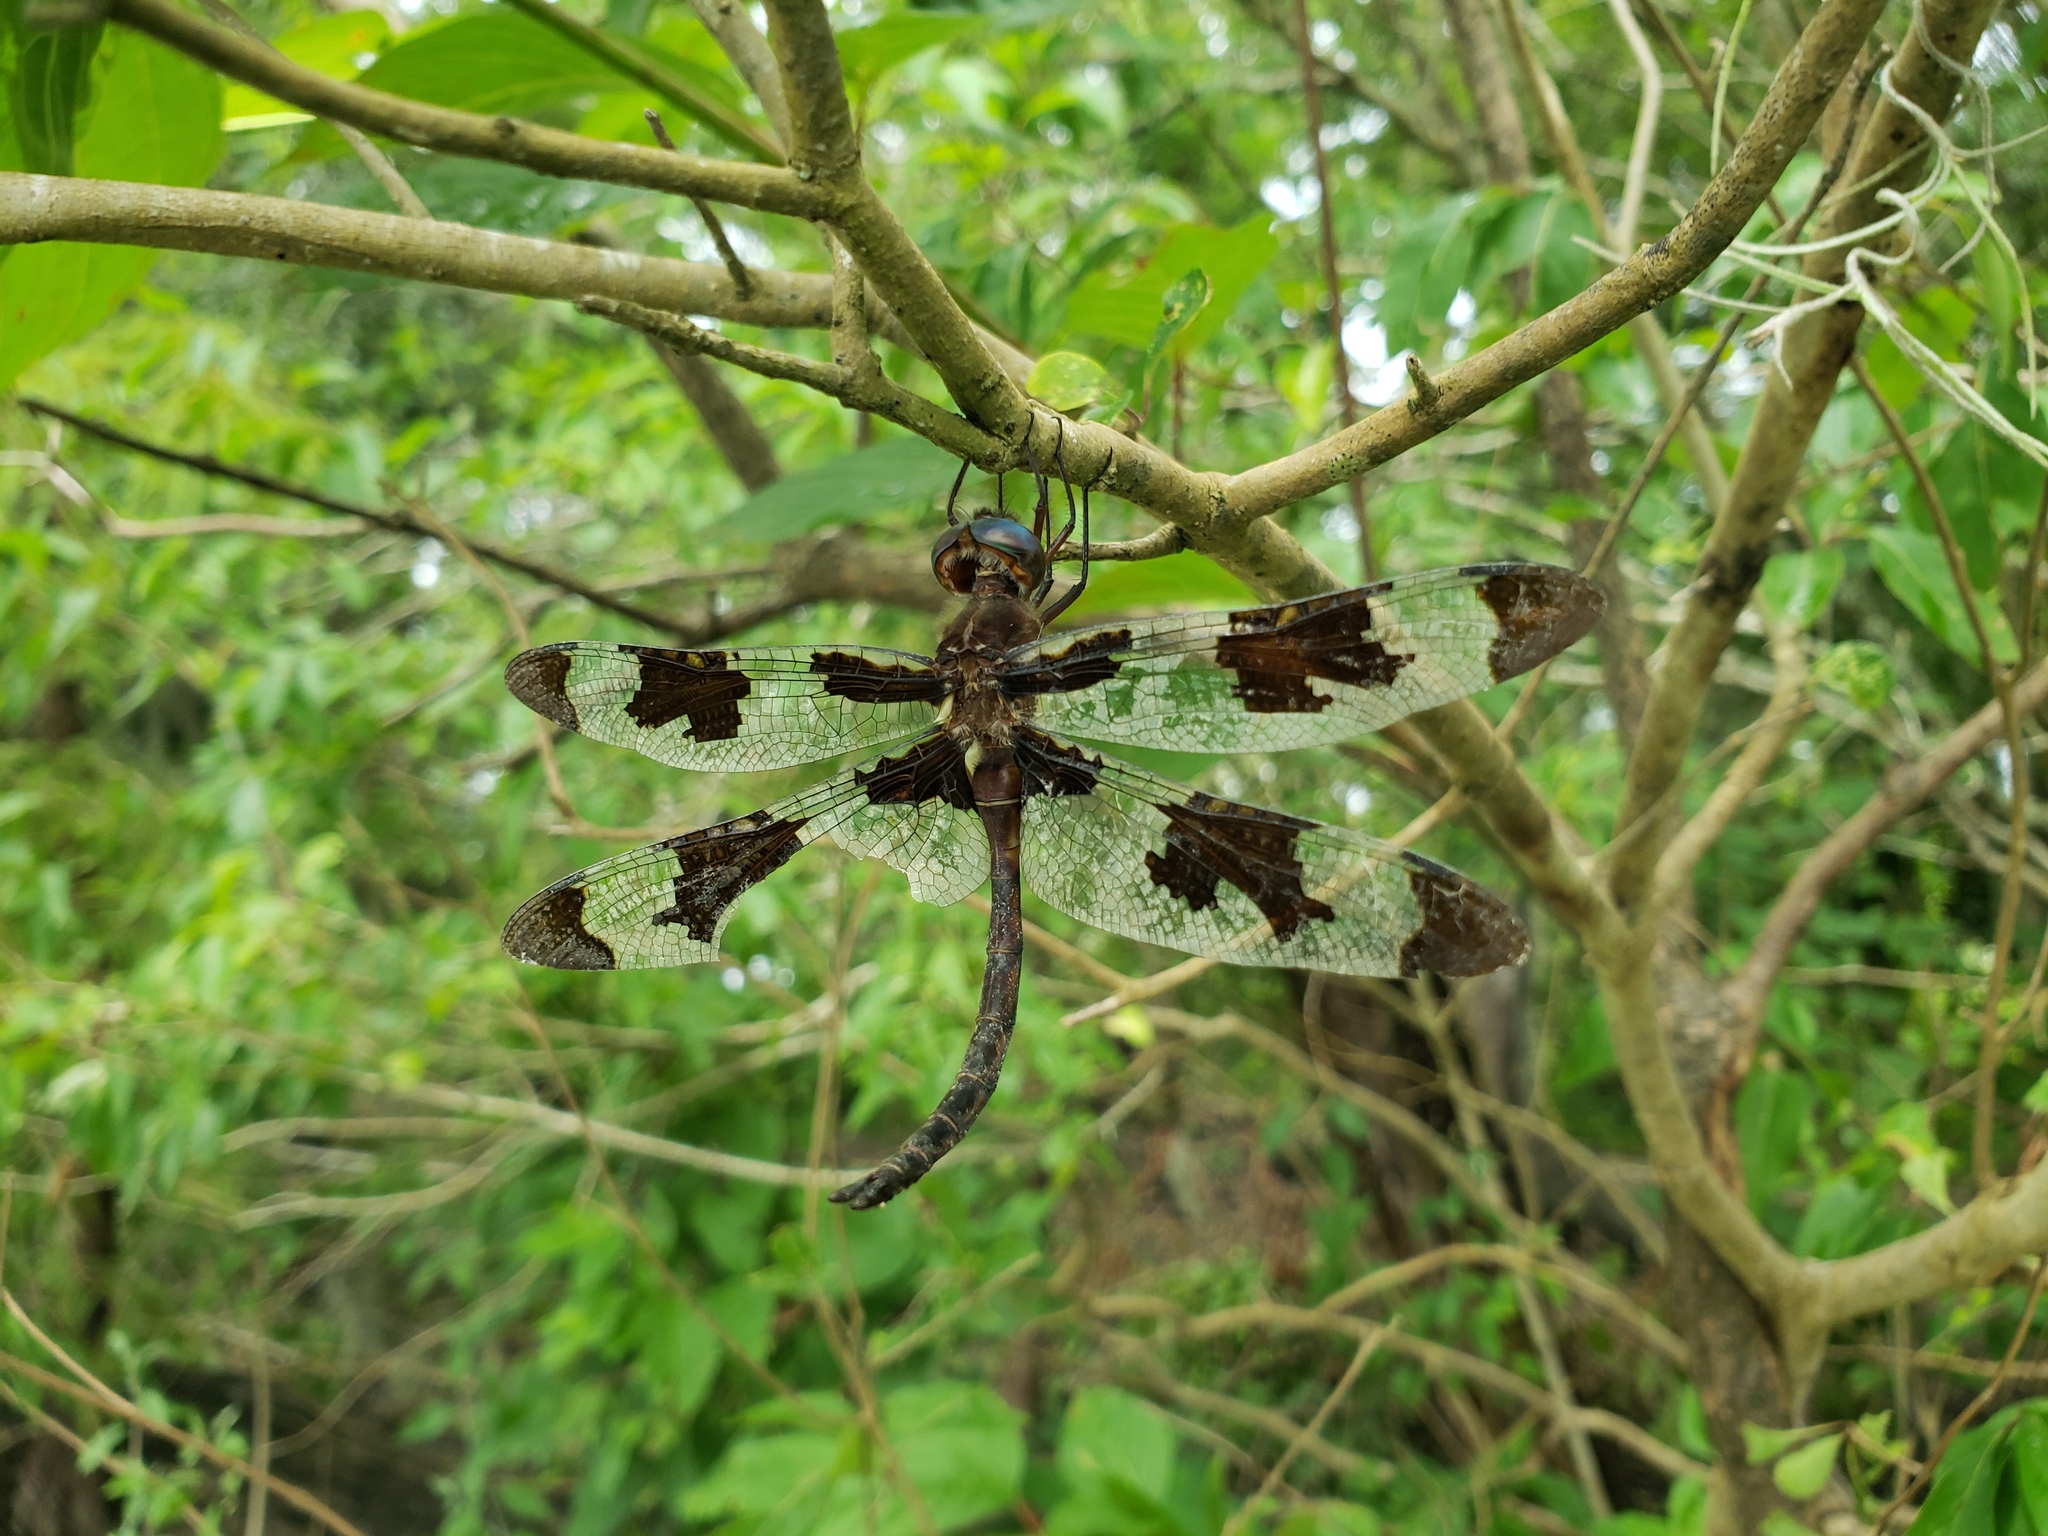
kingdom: Animalia
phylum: Arthropoda
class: Insecta
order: Odonata
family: Corduliidae
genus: Epitheca
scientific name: Epitheca princeps
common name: Prince baskettail
